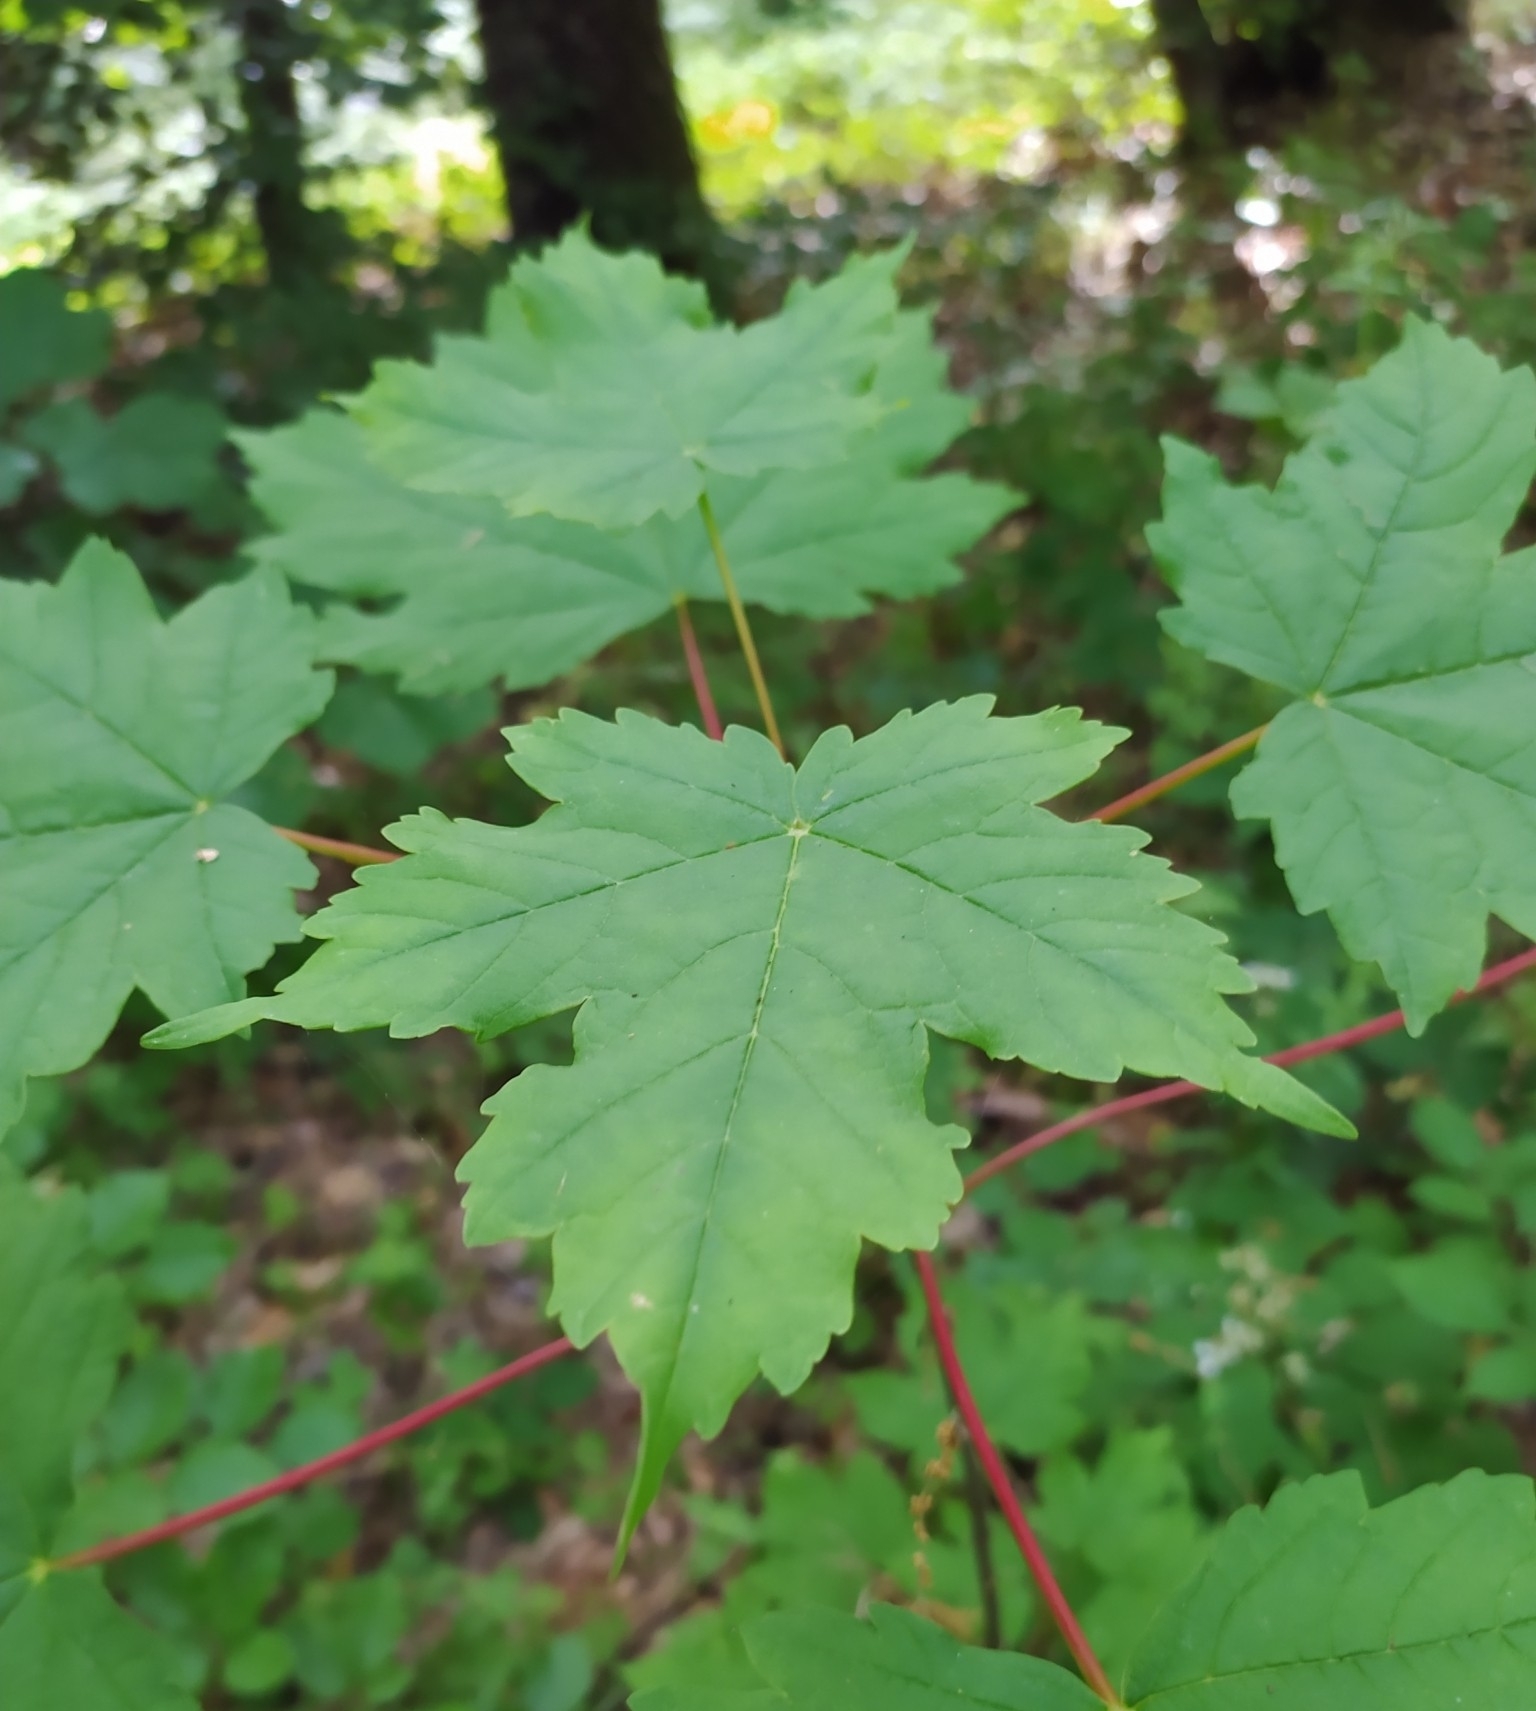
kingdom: Plantae
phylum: Tracheophyta
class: Magnoliopsida
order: Sapindales
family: Sapindaceae
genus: Acer
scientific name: Acer pseudoplatanus
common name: Sycamore
